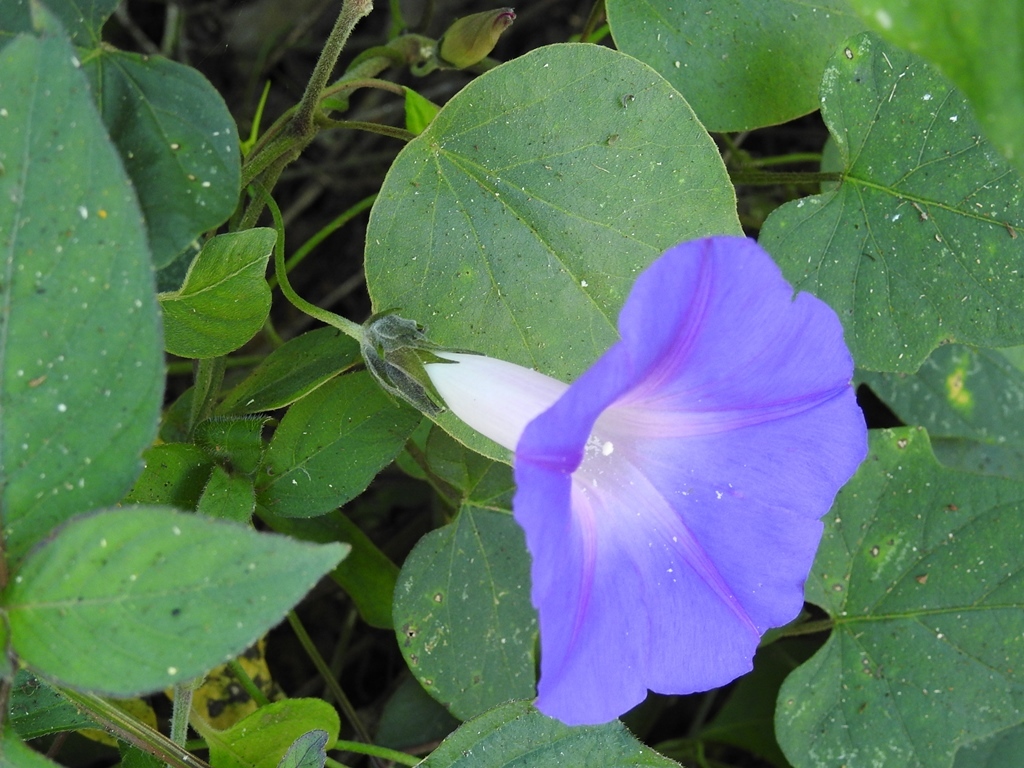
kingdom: Plantae
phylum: Tracheophyta
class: Magnoliopsida
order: Solanales
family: Convolvulaceae
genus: Ipomoea
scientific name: Ipomoea indica
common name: Blue dawnflower
